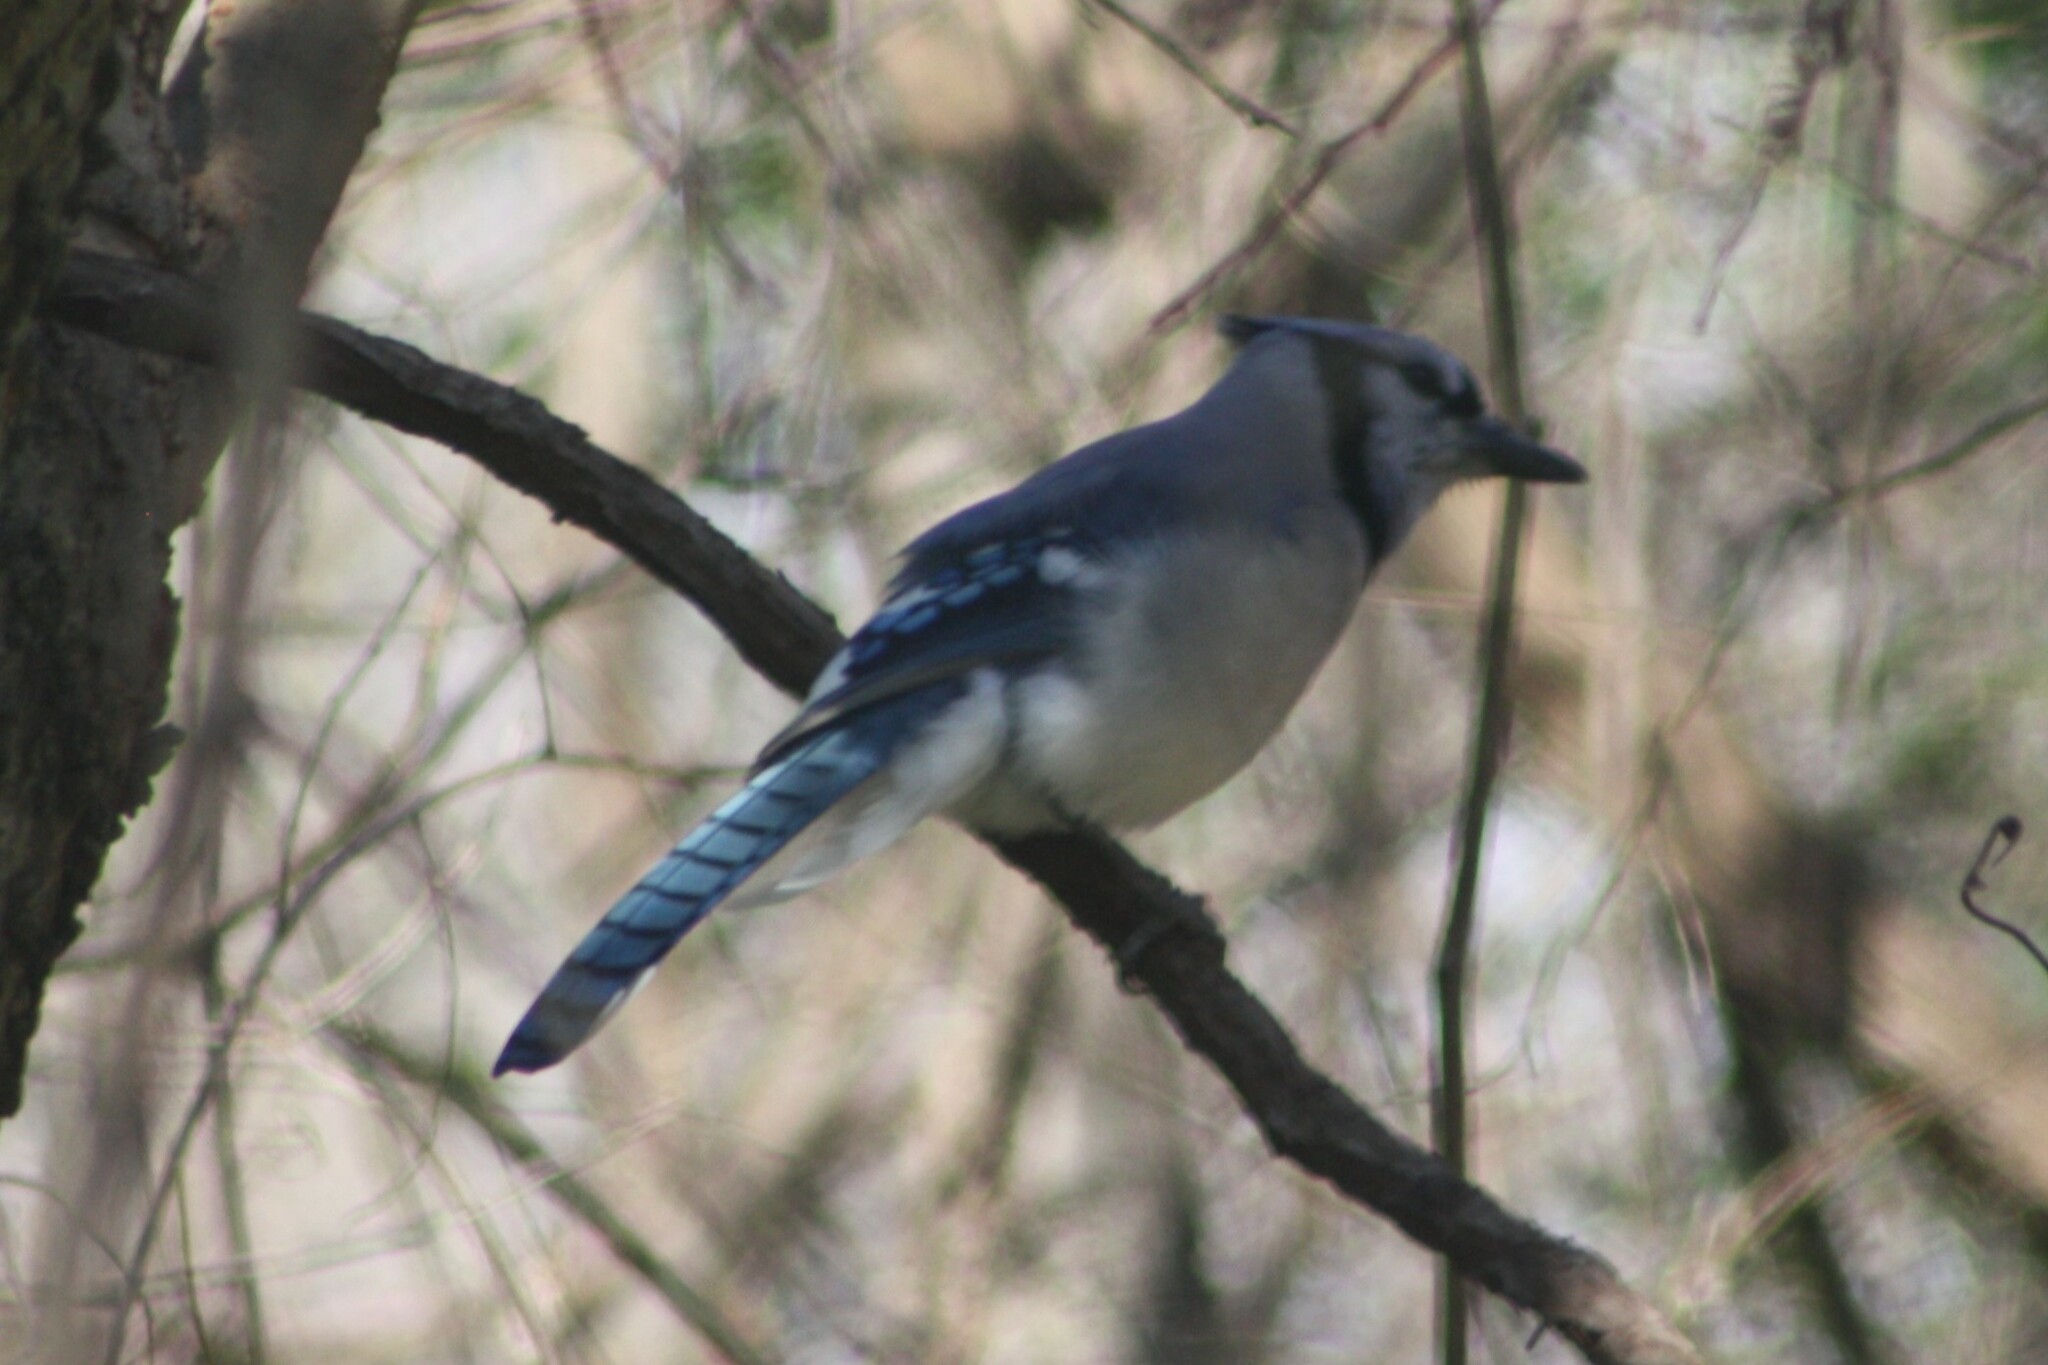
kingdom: Animalia
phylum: Chordata
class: Aves
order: Passeriformes
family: Corvidae
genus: Cyanocitta
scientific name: Cyanocitta cristata
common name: Blue jay
